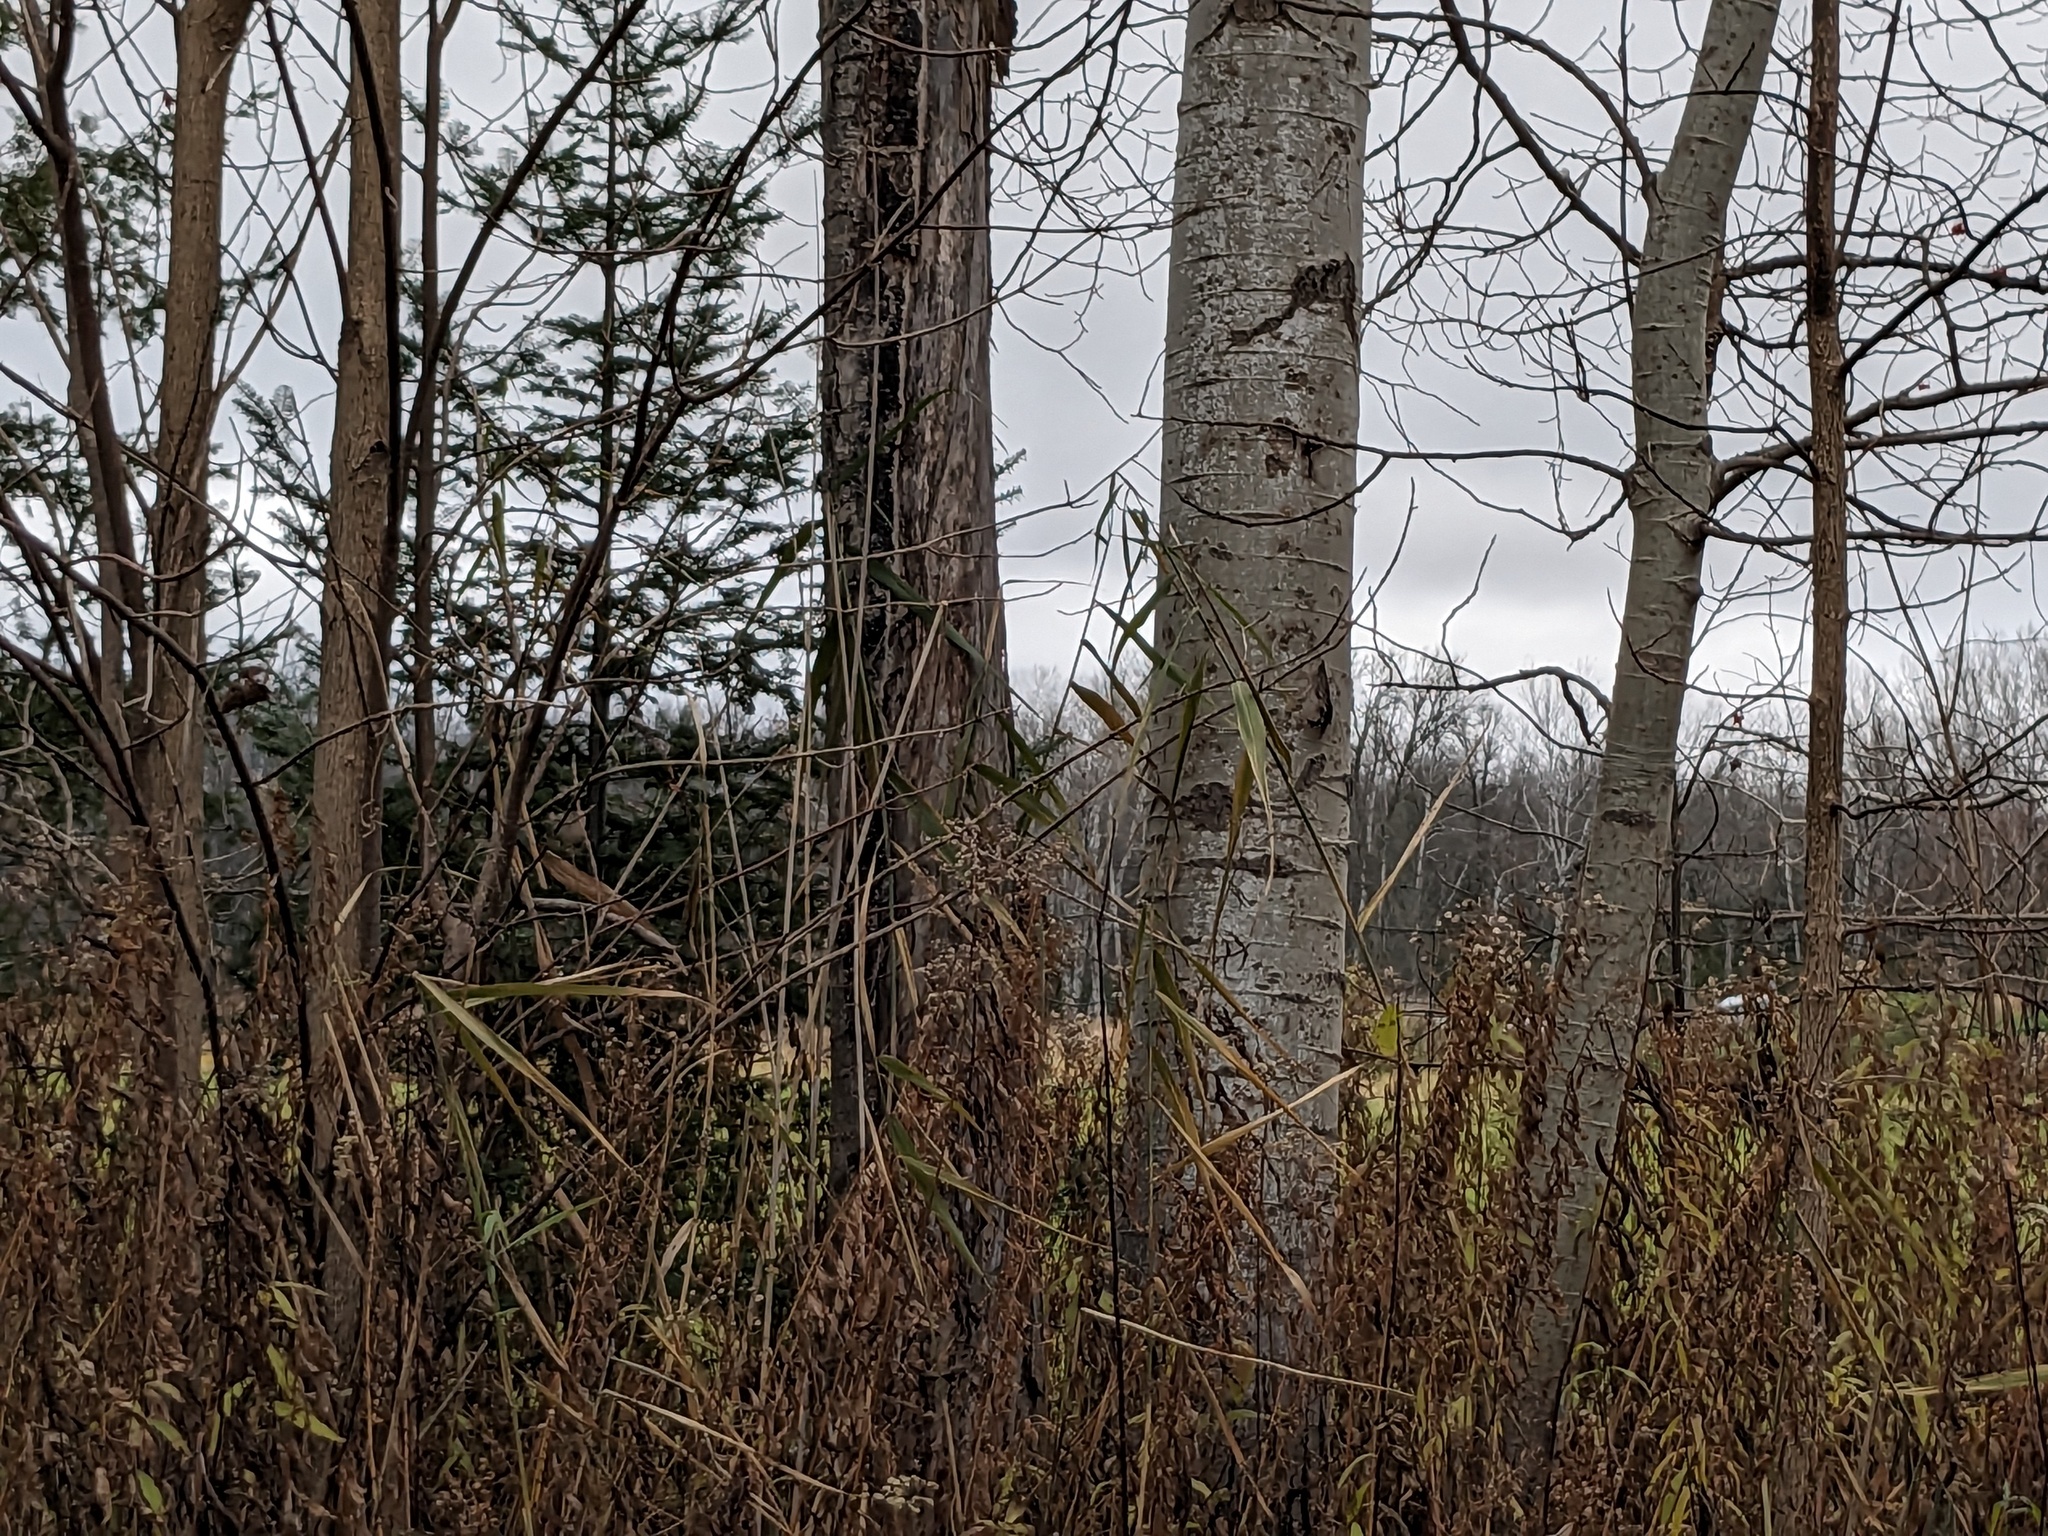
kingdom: Plantae
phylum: Tracheophyta
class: Liliopsida
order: Poales
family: Poaceae
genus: Phragmites
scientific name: Phragmites australis
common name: Common reed
